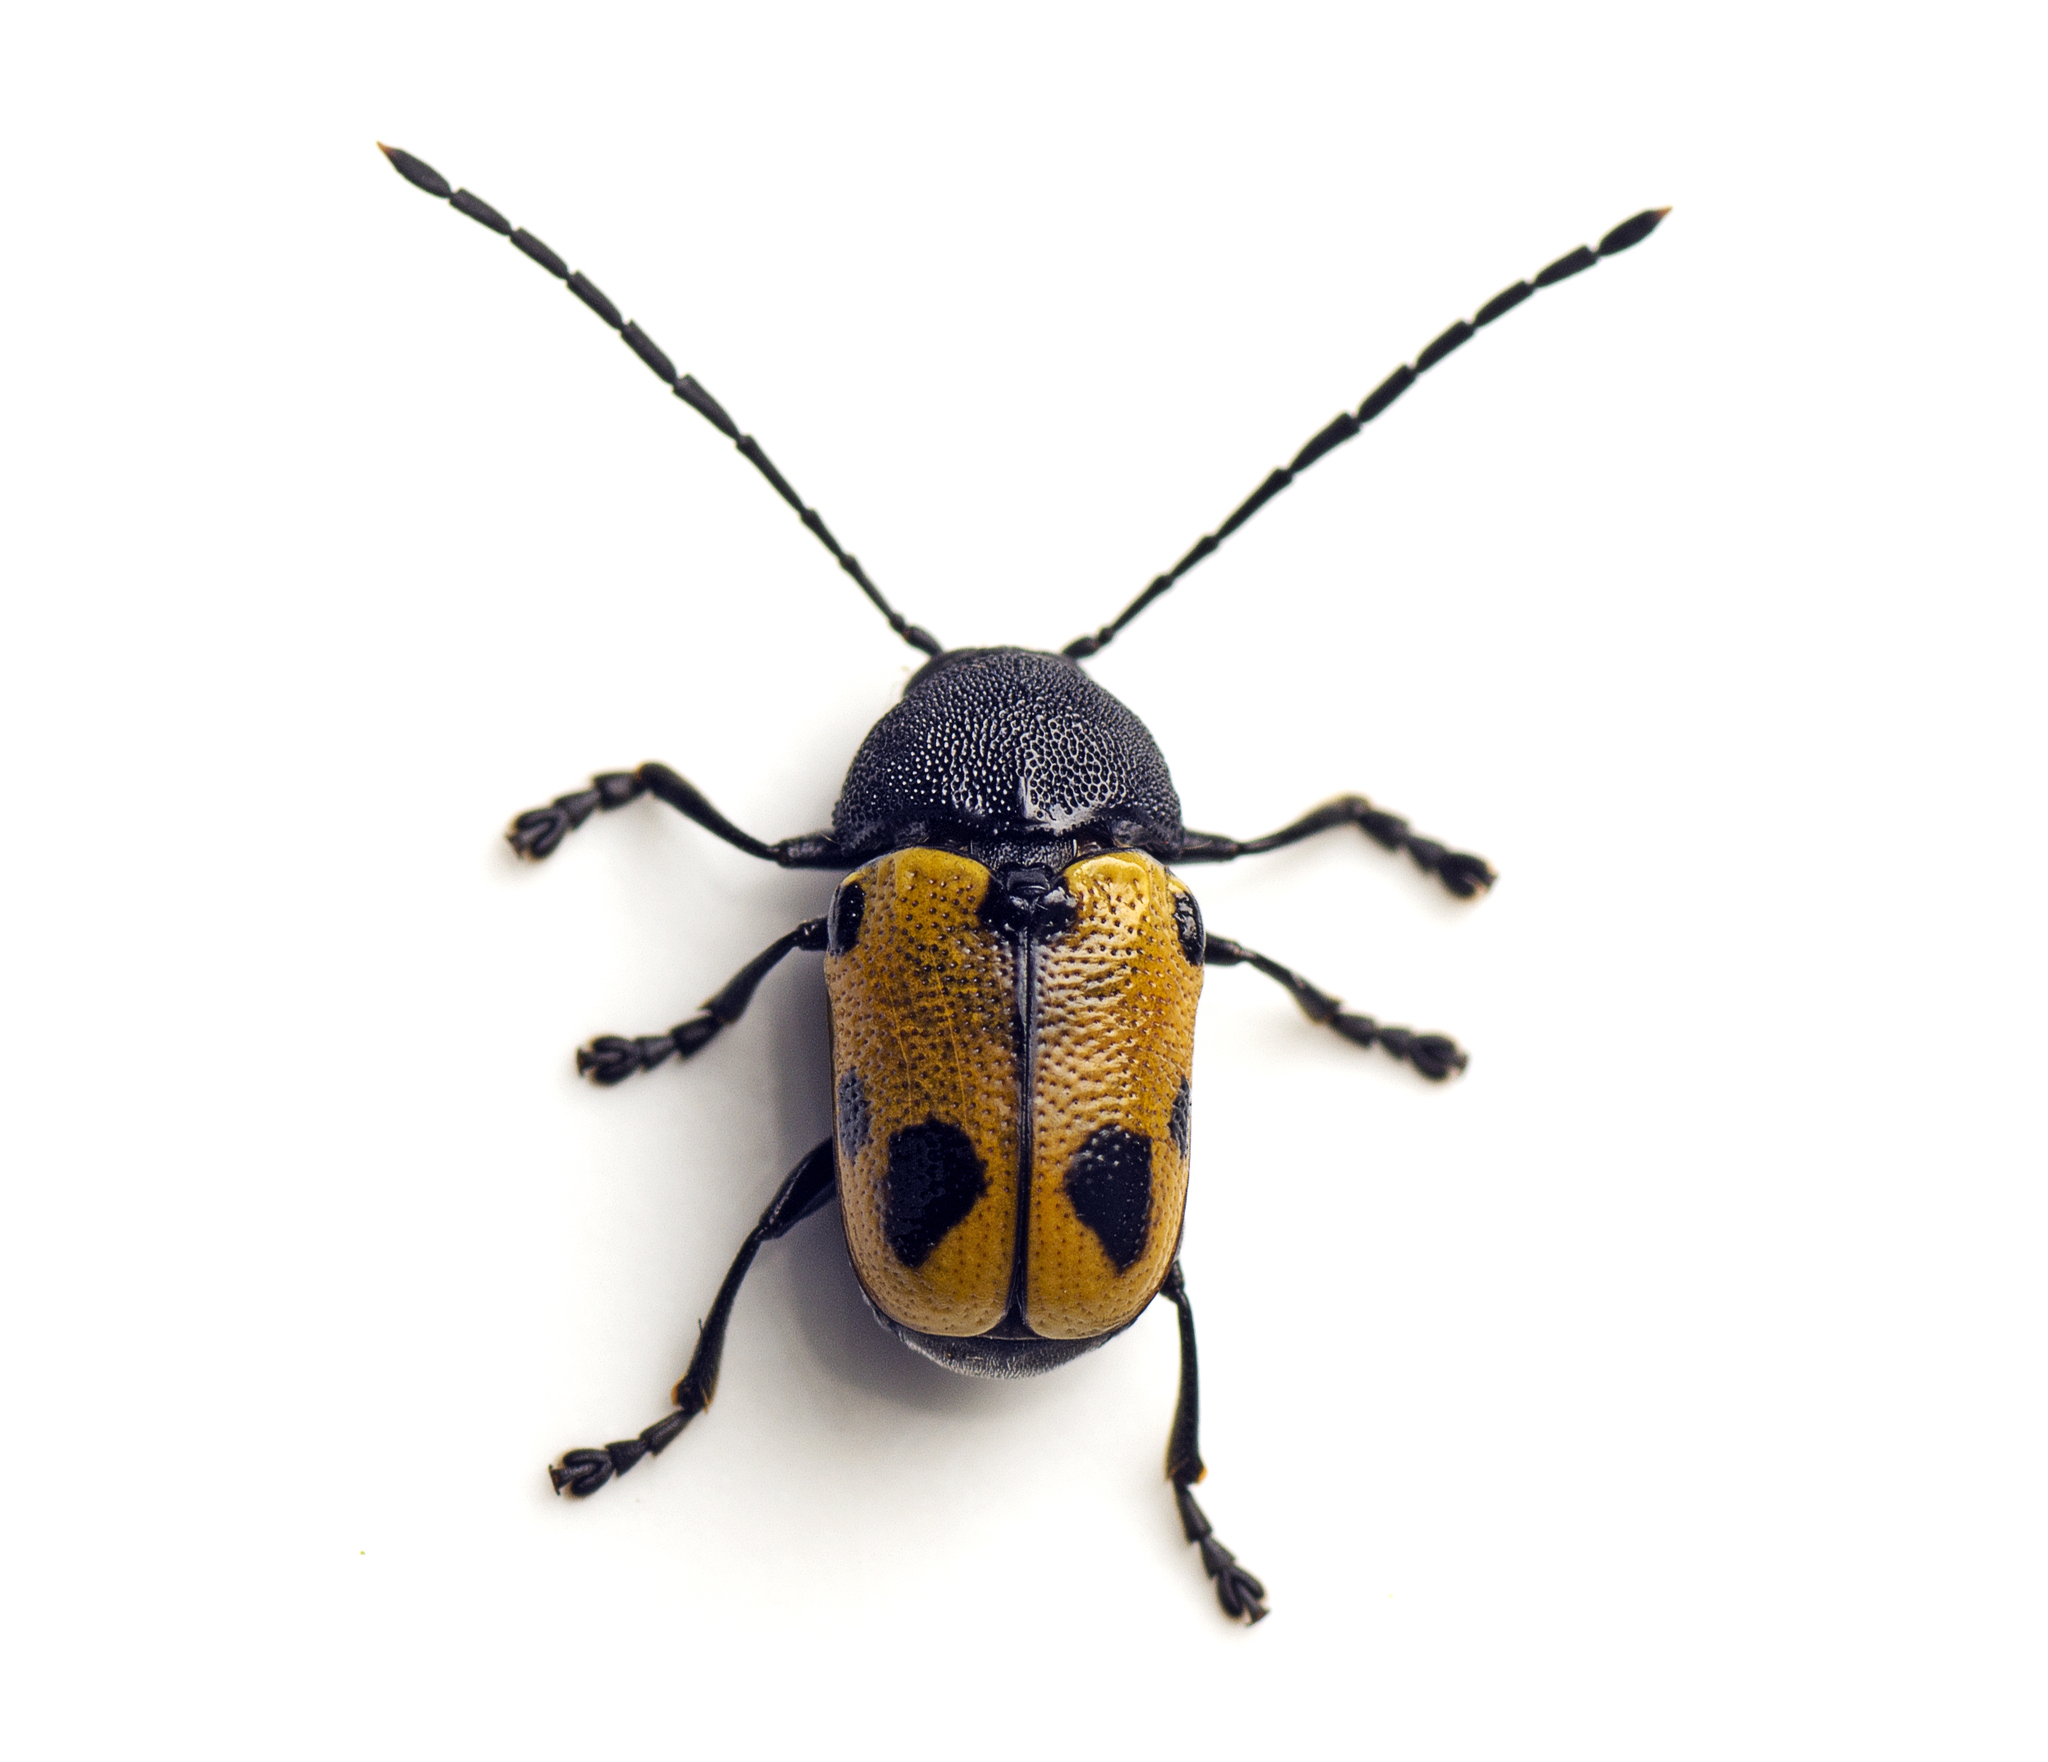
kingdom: Animalia
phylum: Arthropoda
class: Insecta
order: Coleoptera
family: Chrysomelidae
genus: Cadmus
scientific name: Cadmus
